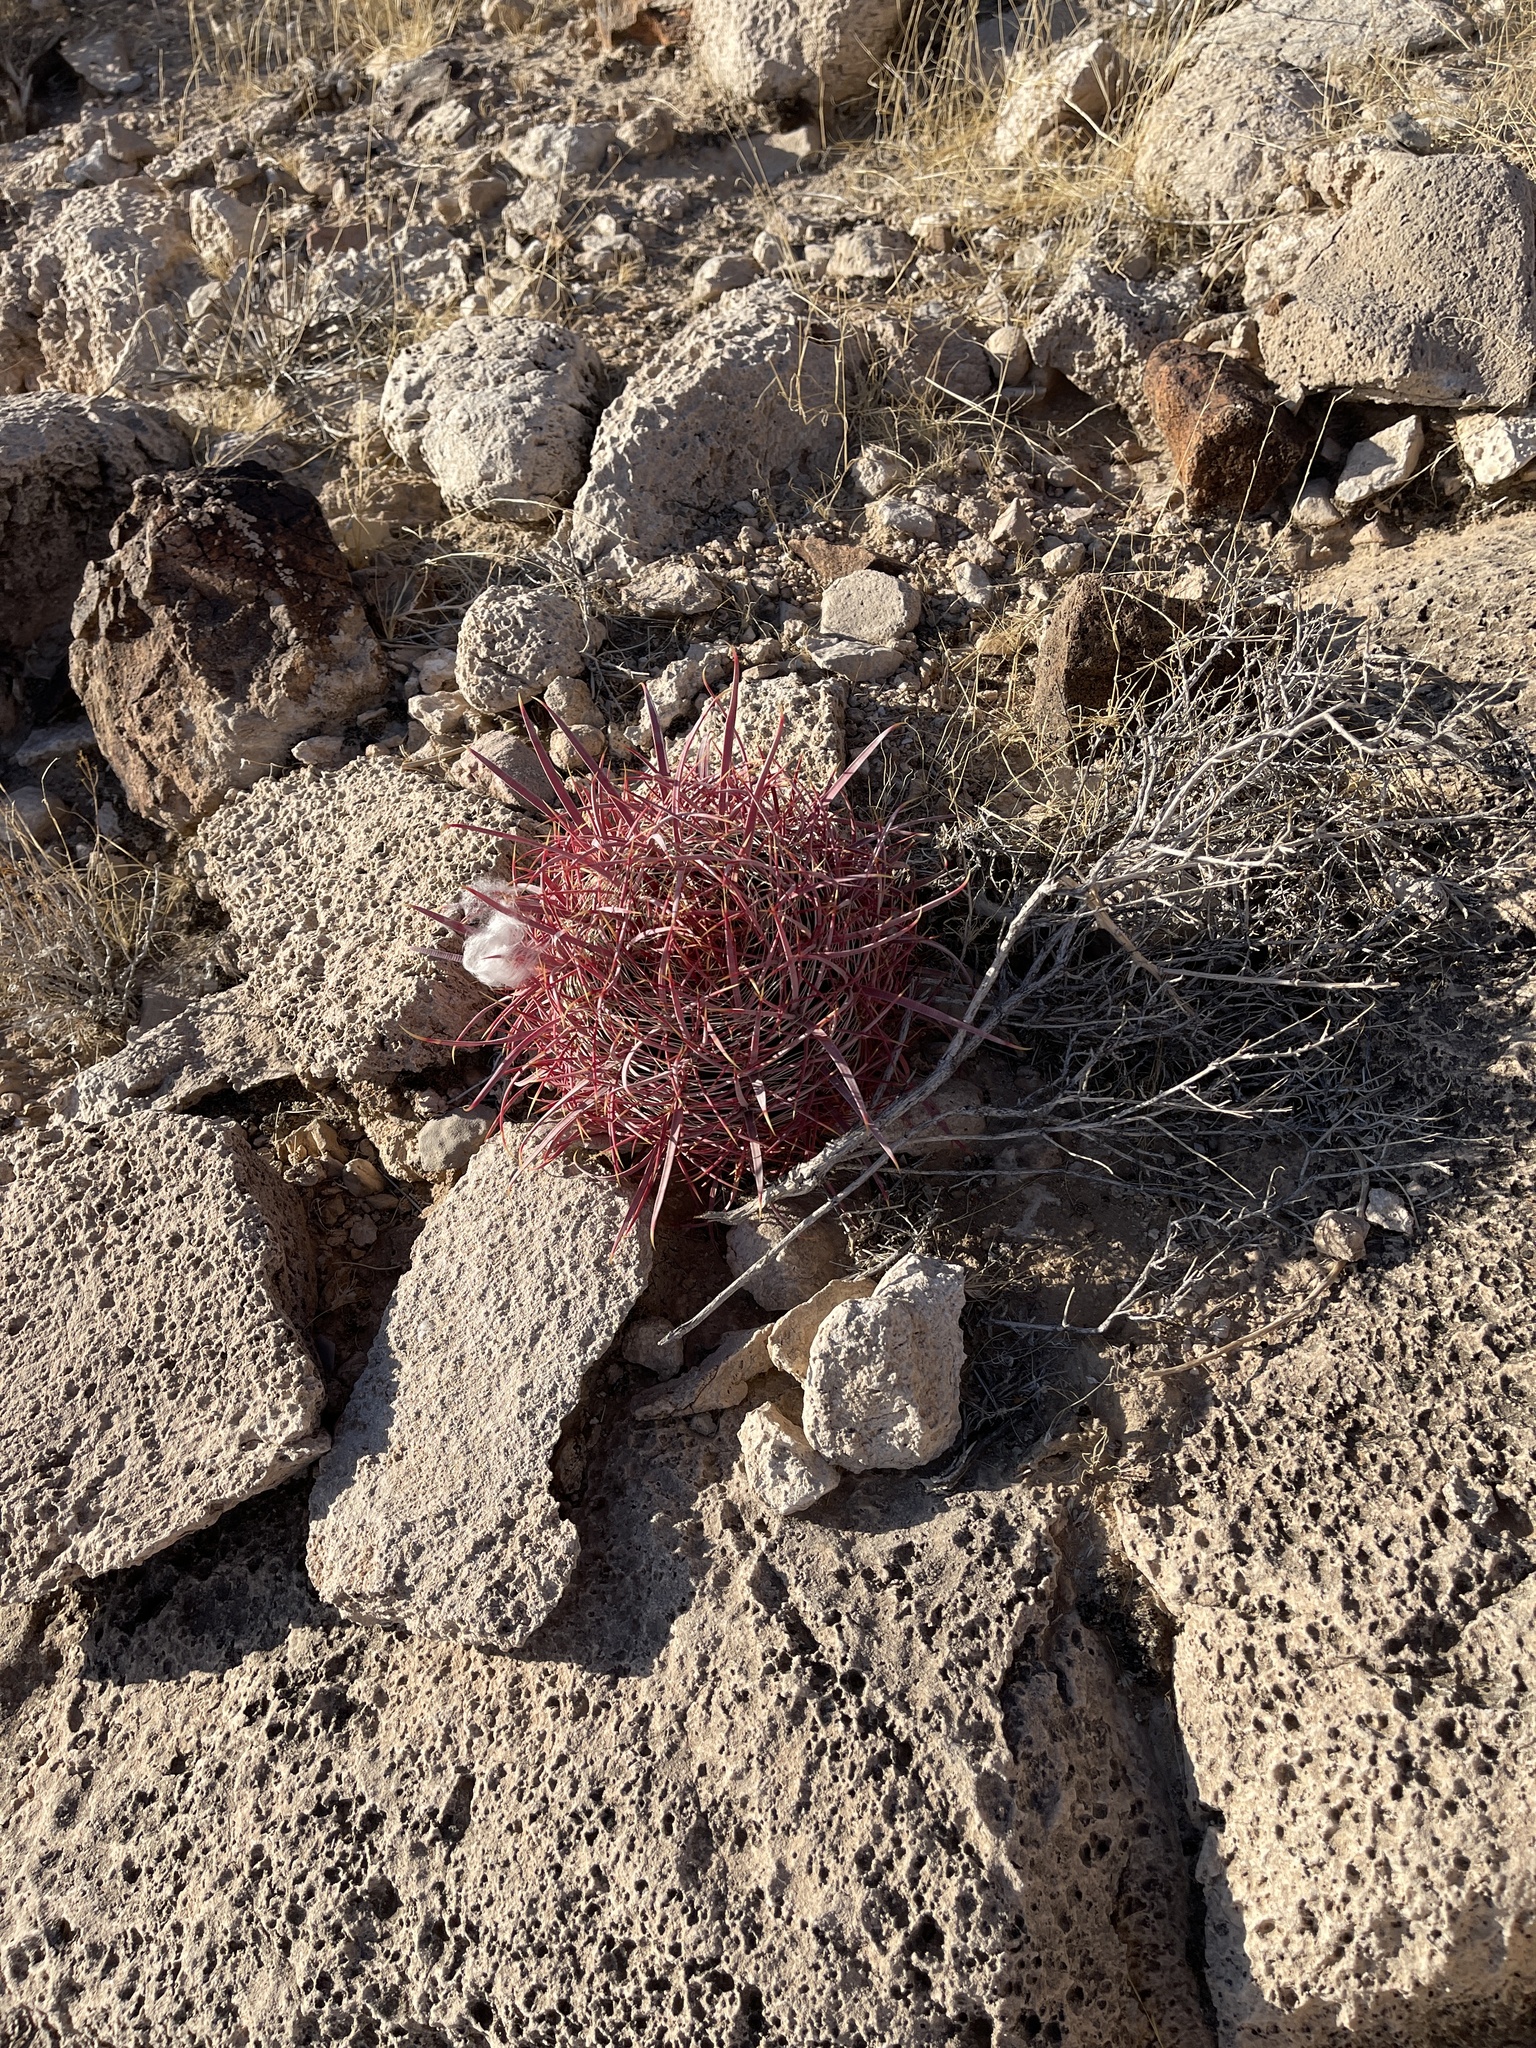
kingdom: Plantae
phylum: Tracheophyta
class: Magnoliopsida
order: Caryophyllales
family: Cactaceae
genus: Ferocactus
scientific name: Ferocactus cylindraceus
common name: California barrel cactus
